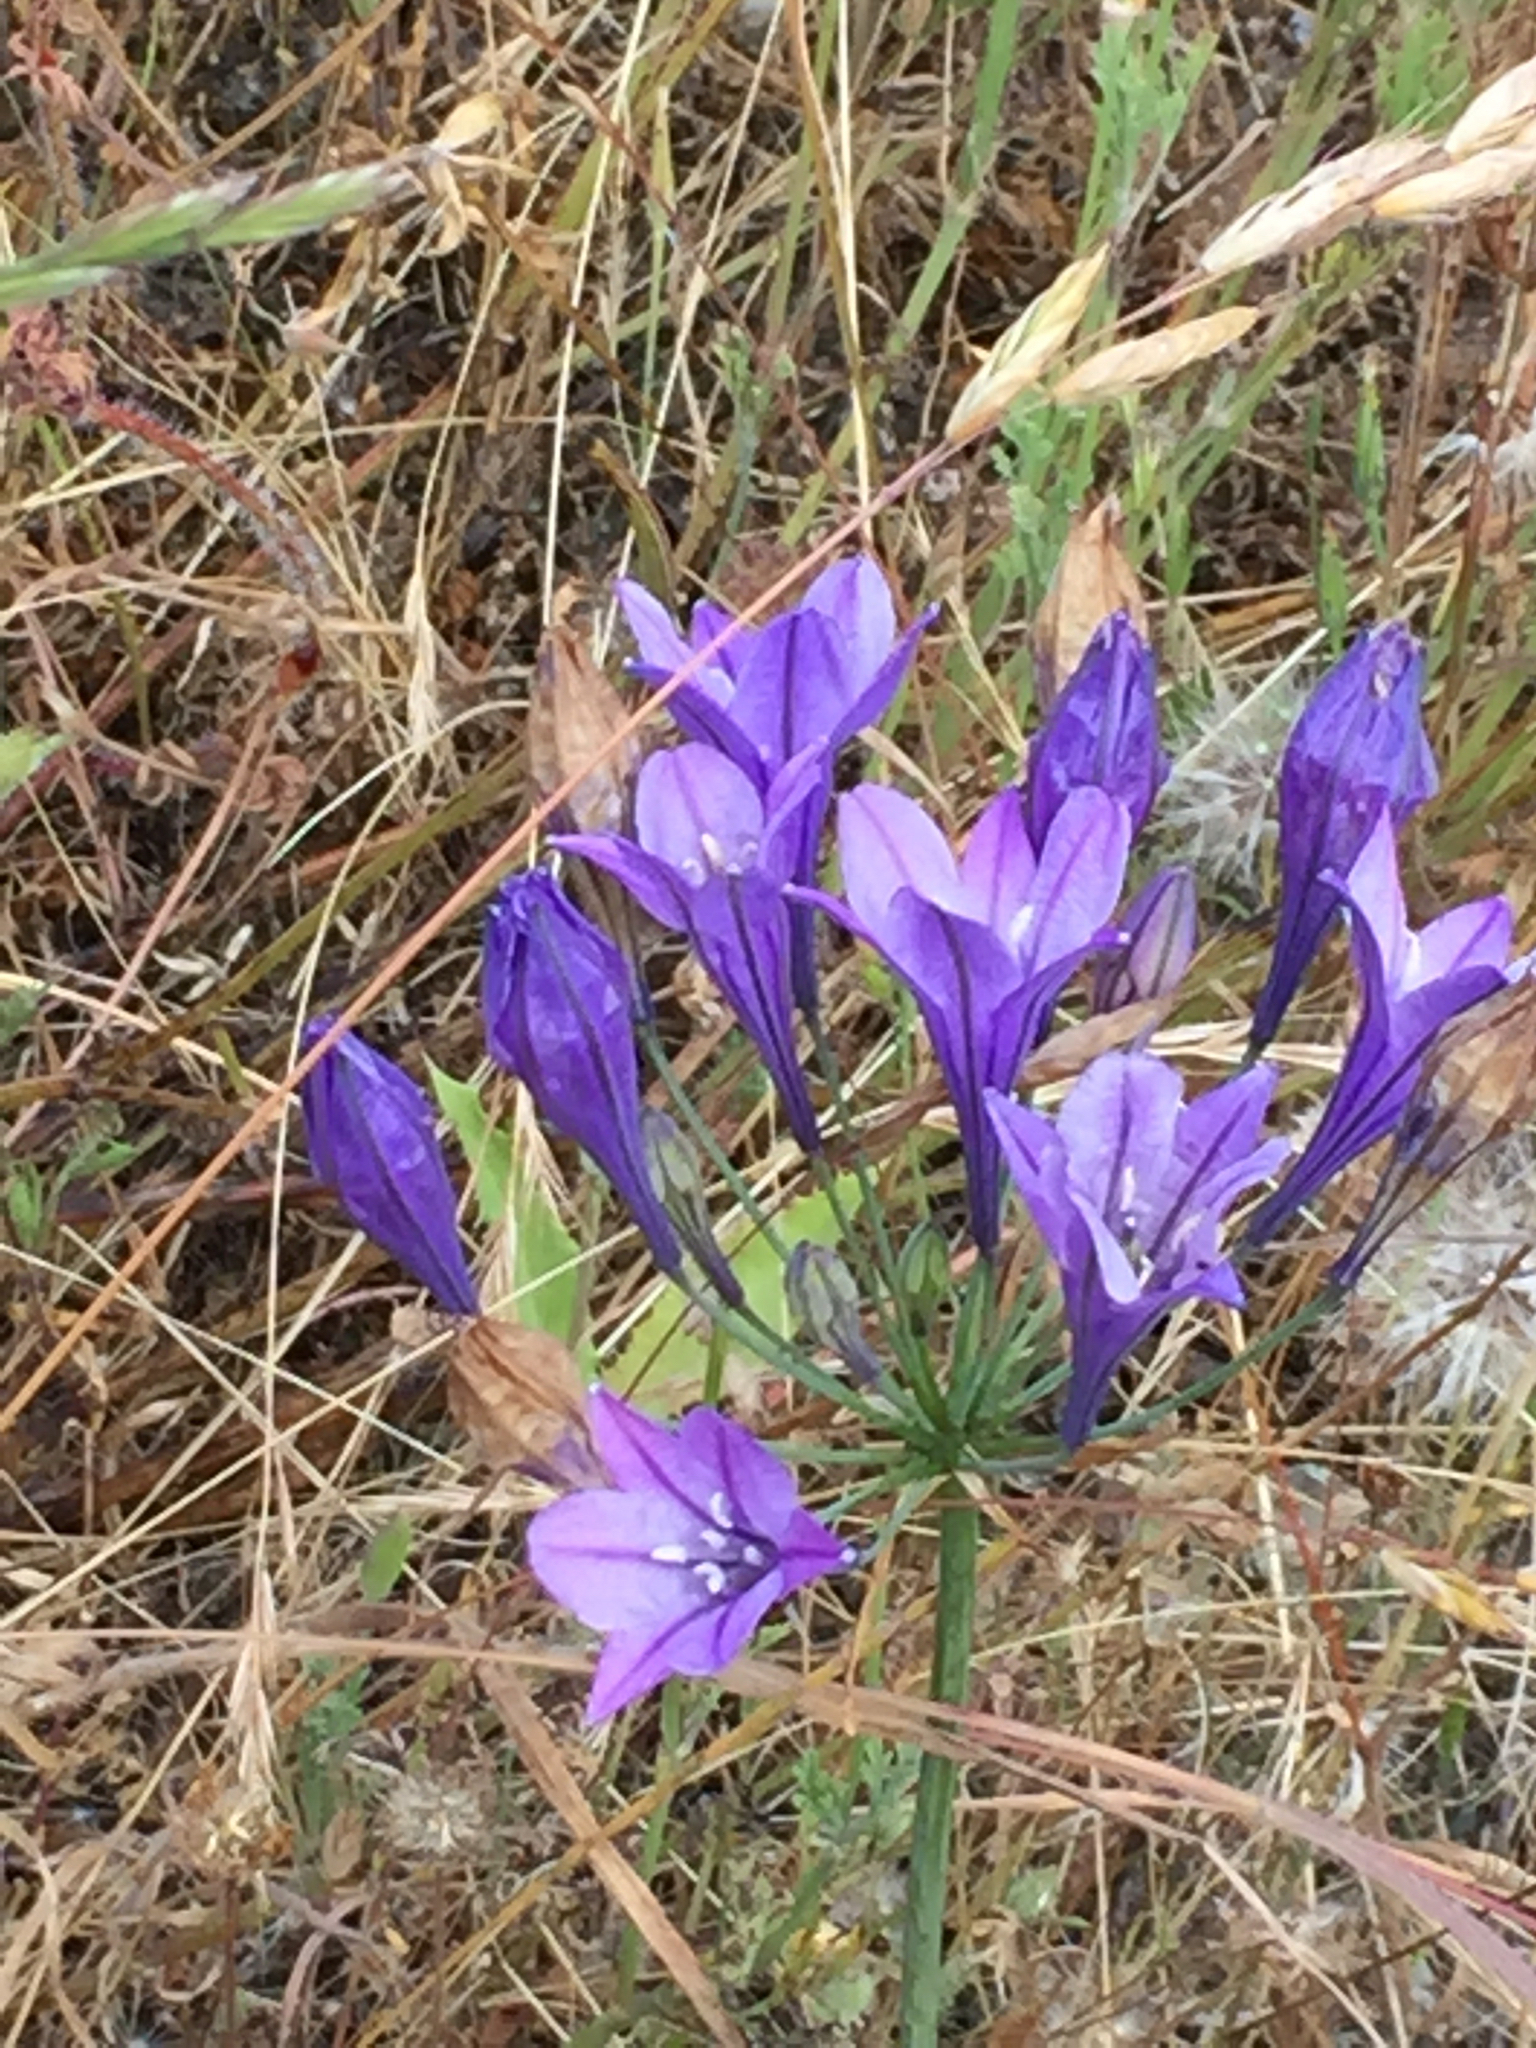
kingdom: Plantae
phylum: Tracheophyta
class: Liliopsida
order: Asparagales
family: Asparagaceae
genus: Triteleia
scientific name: Triteleia laxa
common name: Triplet-lily
